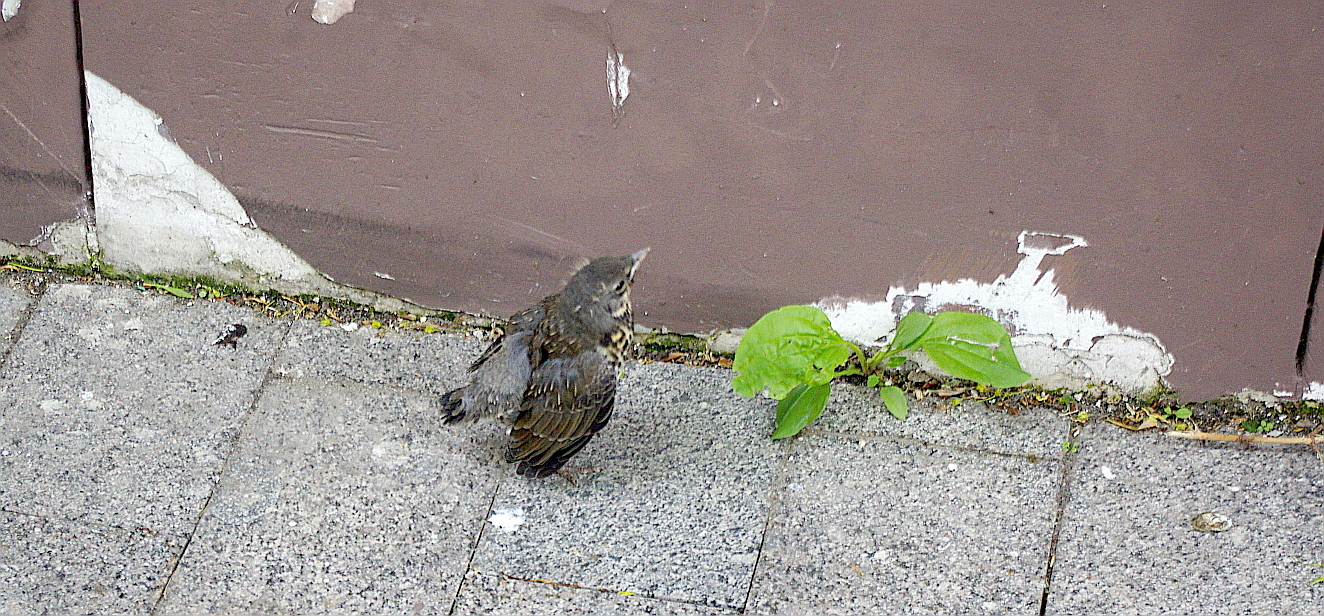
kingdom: Animalia
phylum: Chordata
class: Aves
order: Passeriformes
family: Turdidae
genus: Turdus
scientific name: Turdus pilaris
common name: Fieldfare
